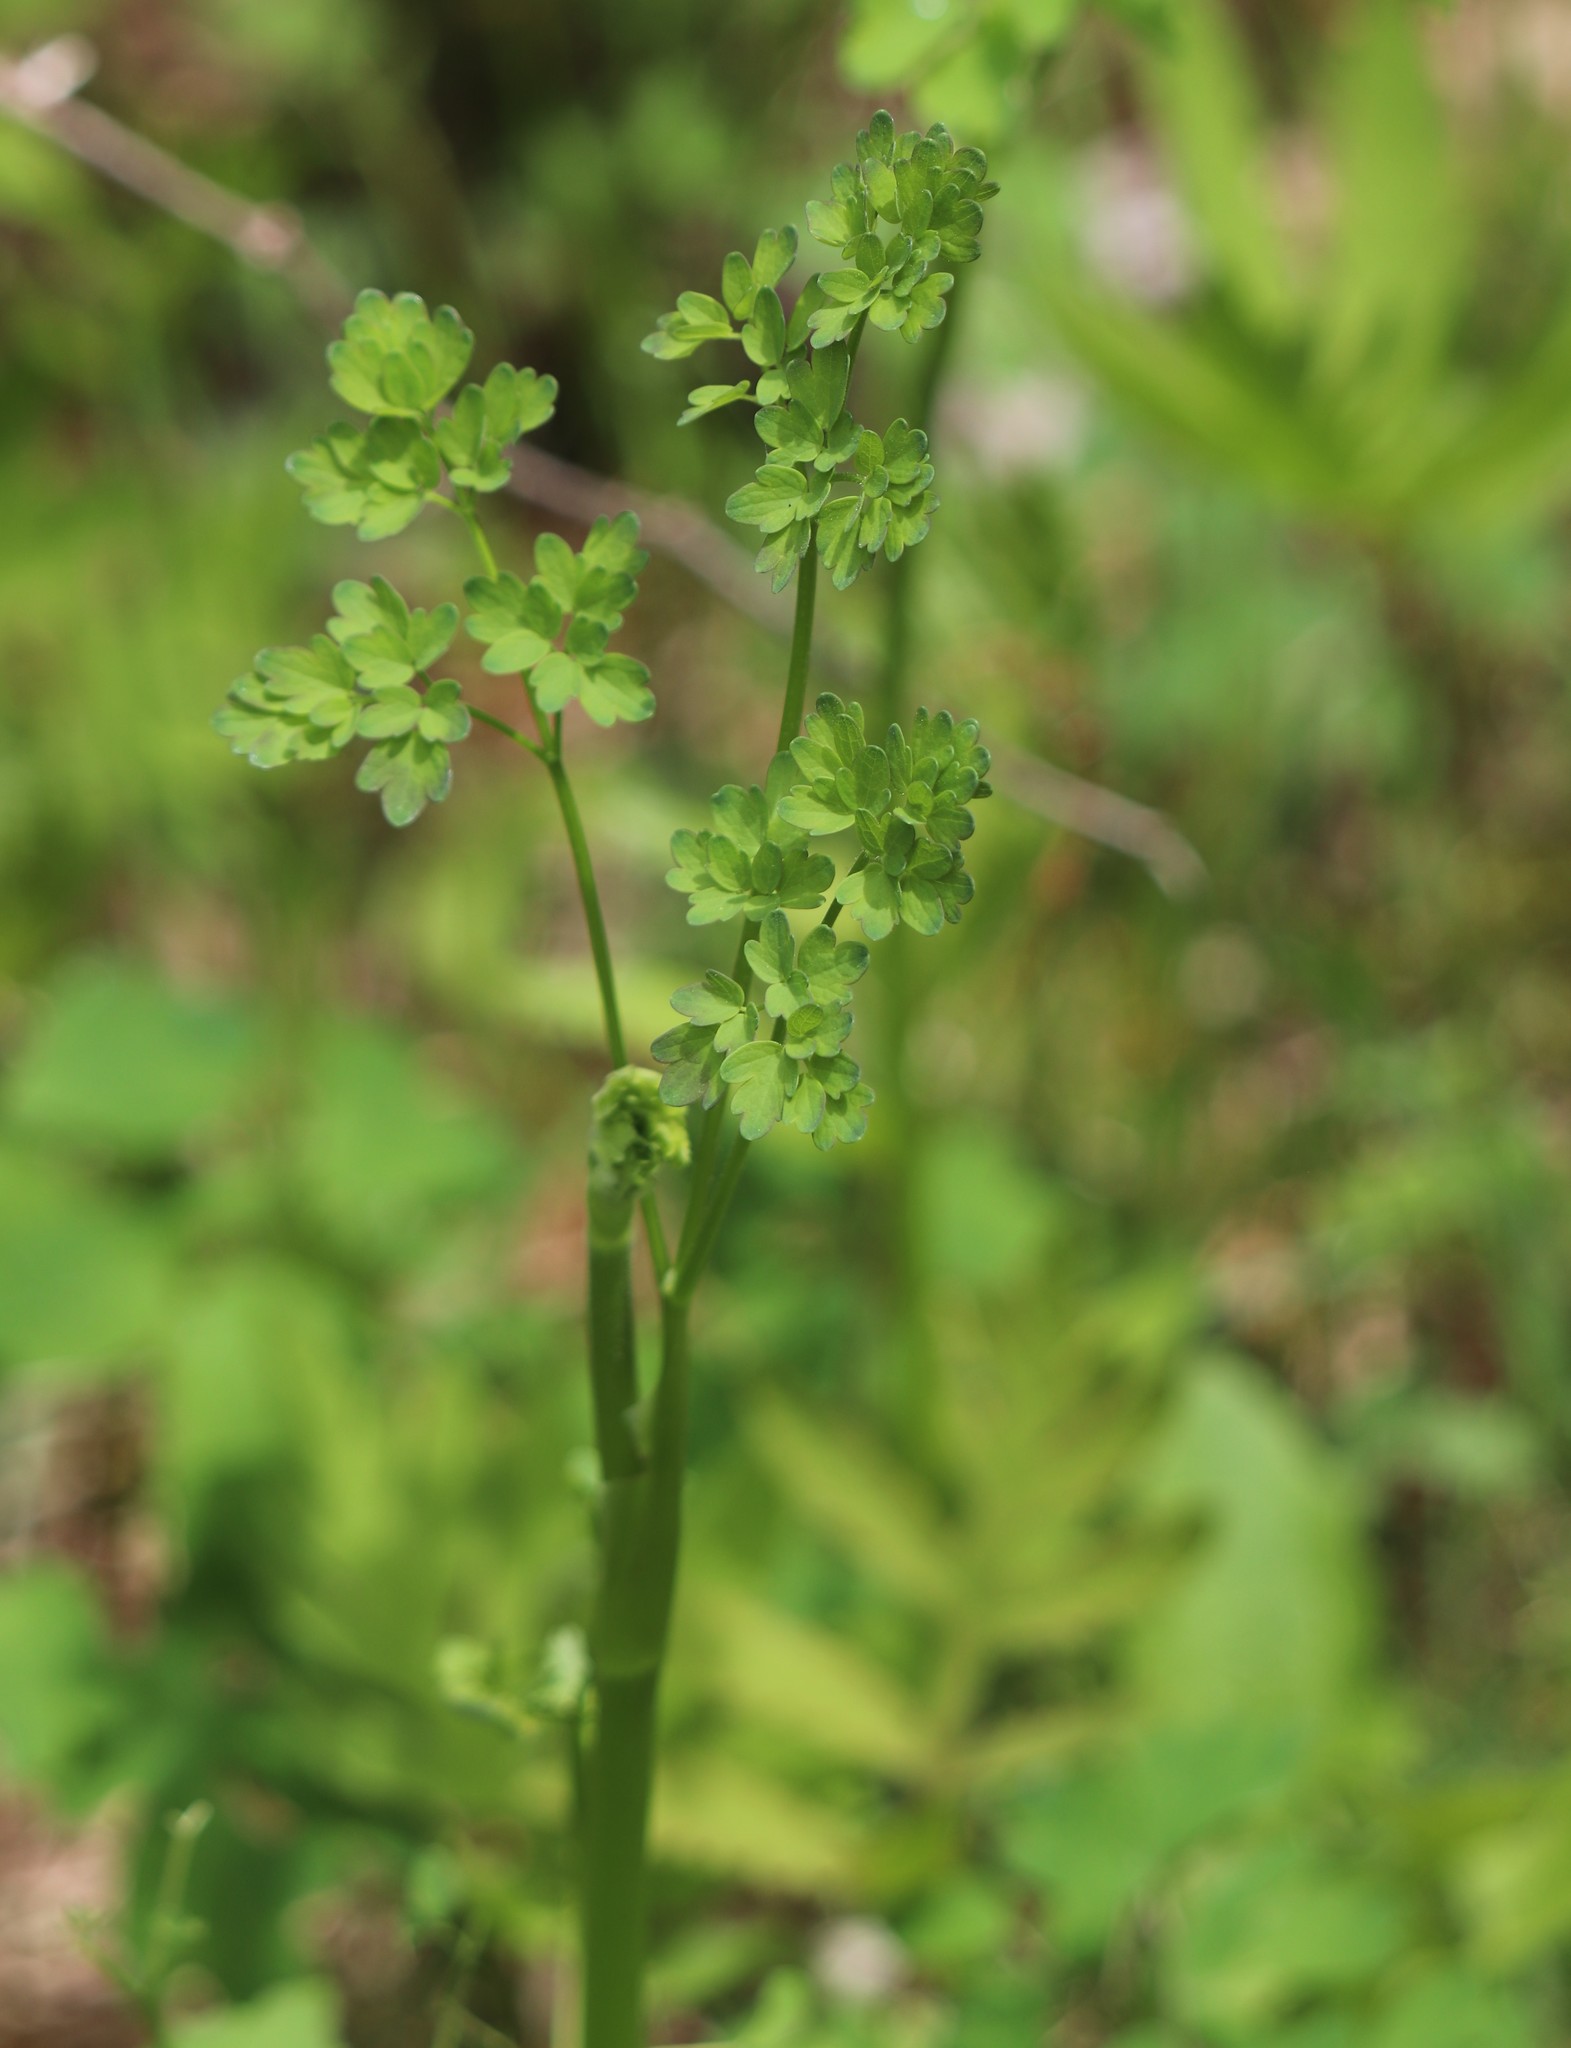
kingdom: Plantae
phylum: Tracheophyta
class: Magnoliopsida
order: Ranunculales
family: Ranunculaceae
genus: Thalictrum
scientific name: Thalictrum pubescens
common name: King-of-the-meadow
